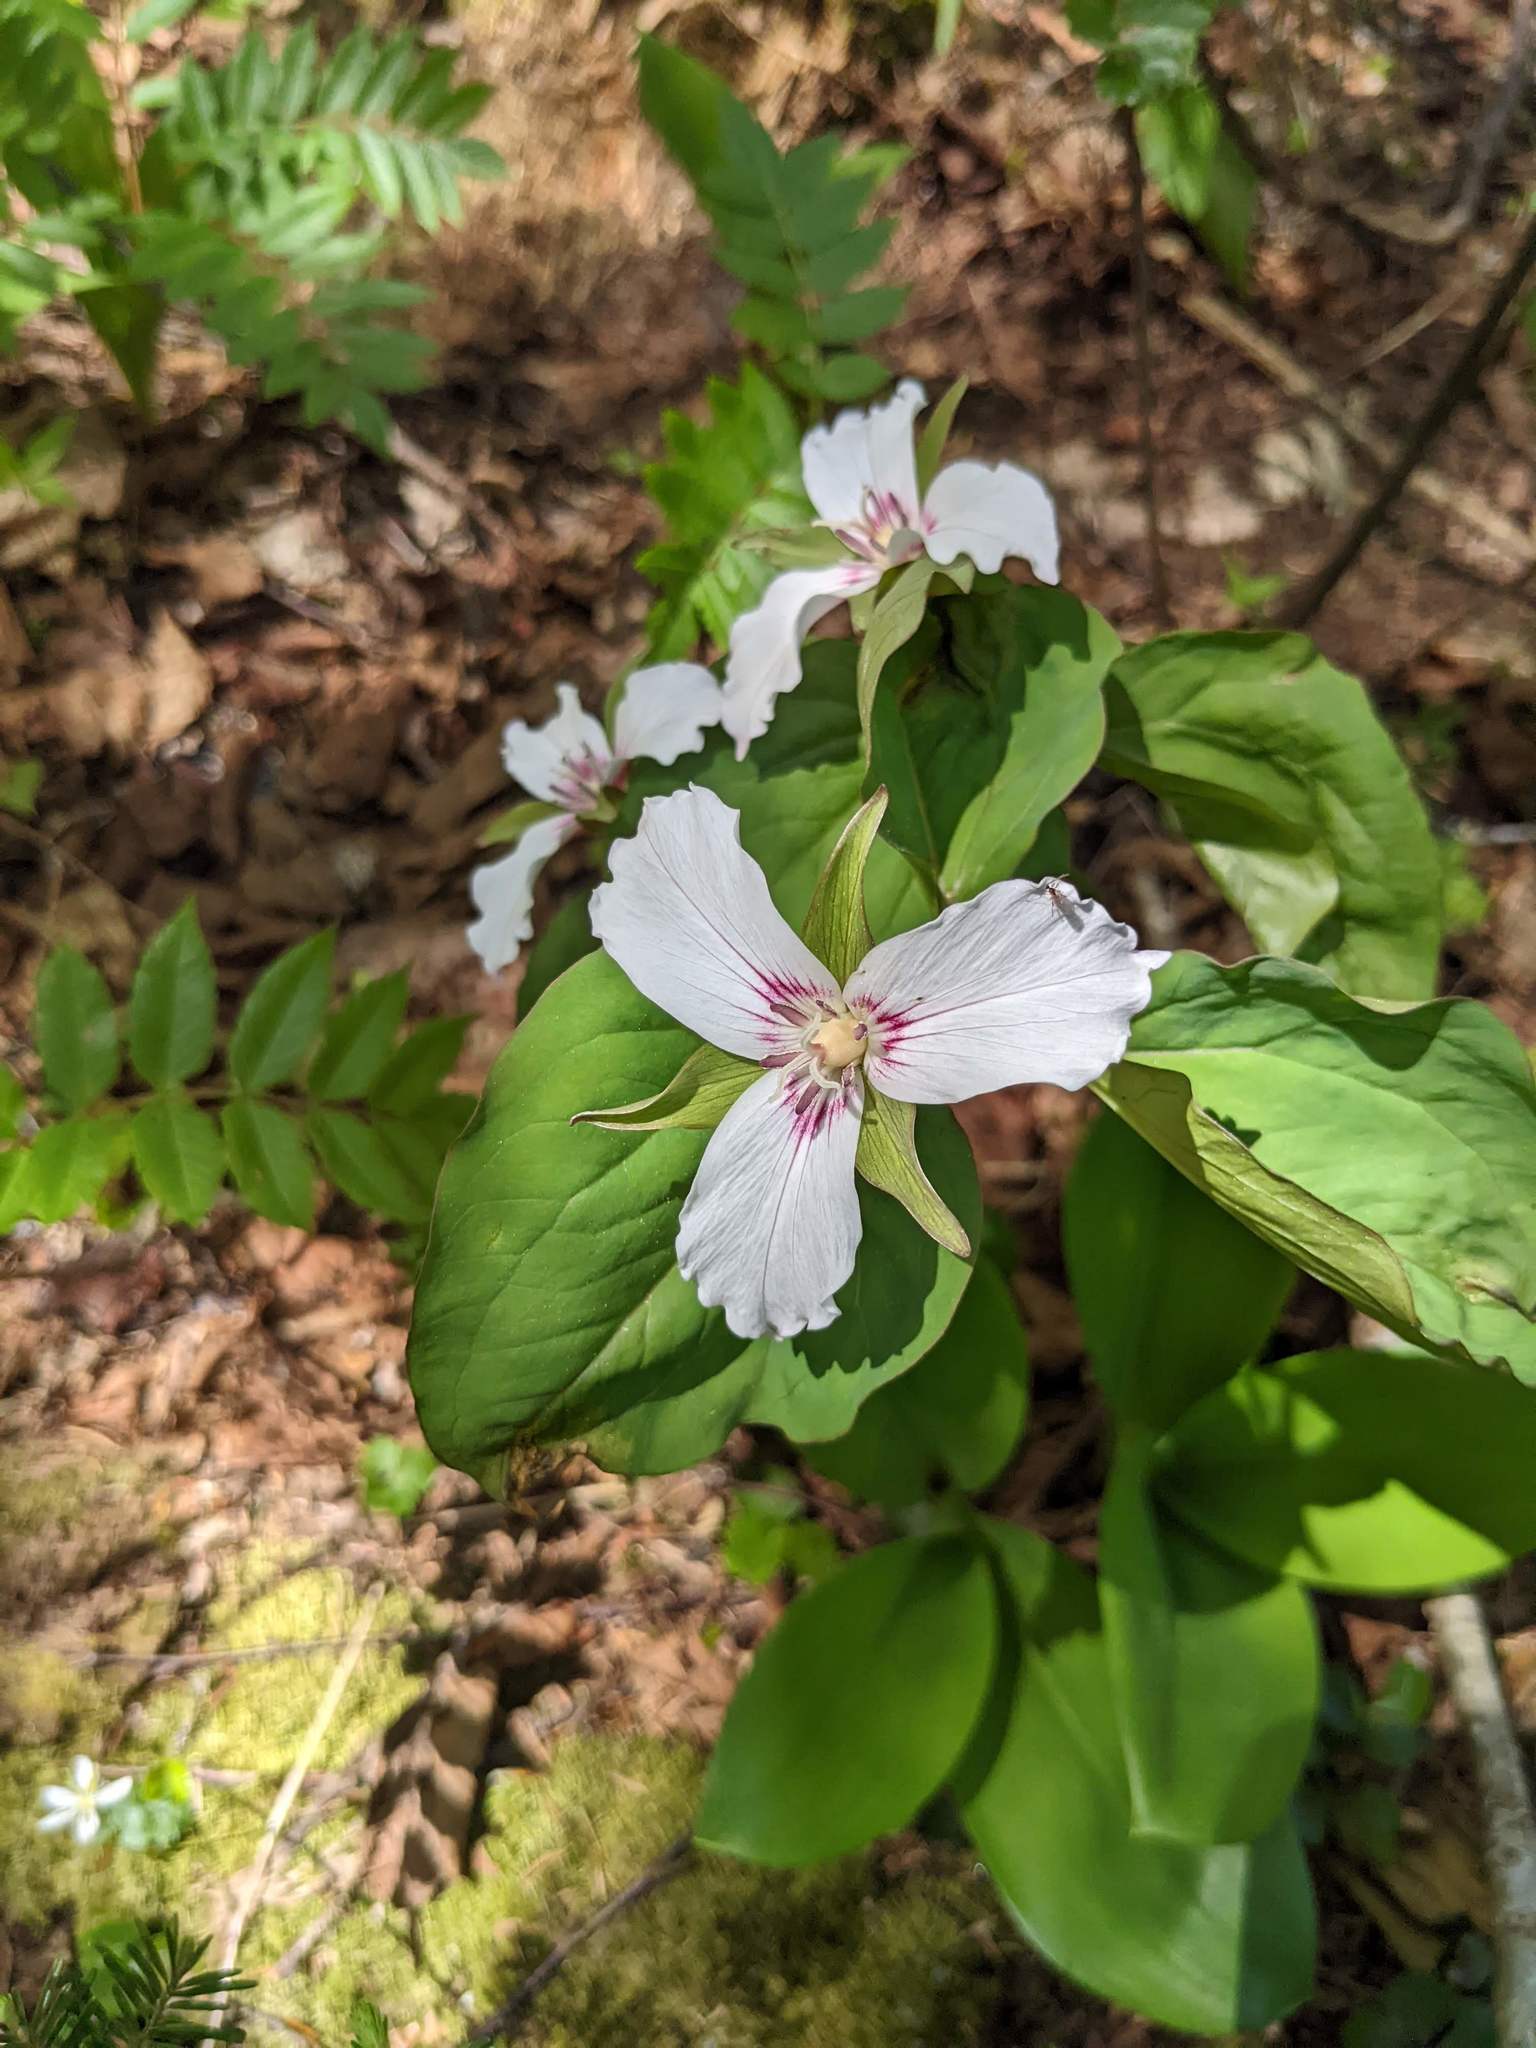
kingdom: Plantae
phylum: Tracheophyta
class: Liliopsida
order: Liliales
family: Melanthiaceae
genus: Trillium
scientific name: Trillium undulatum
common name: Paint trillium
